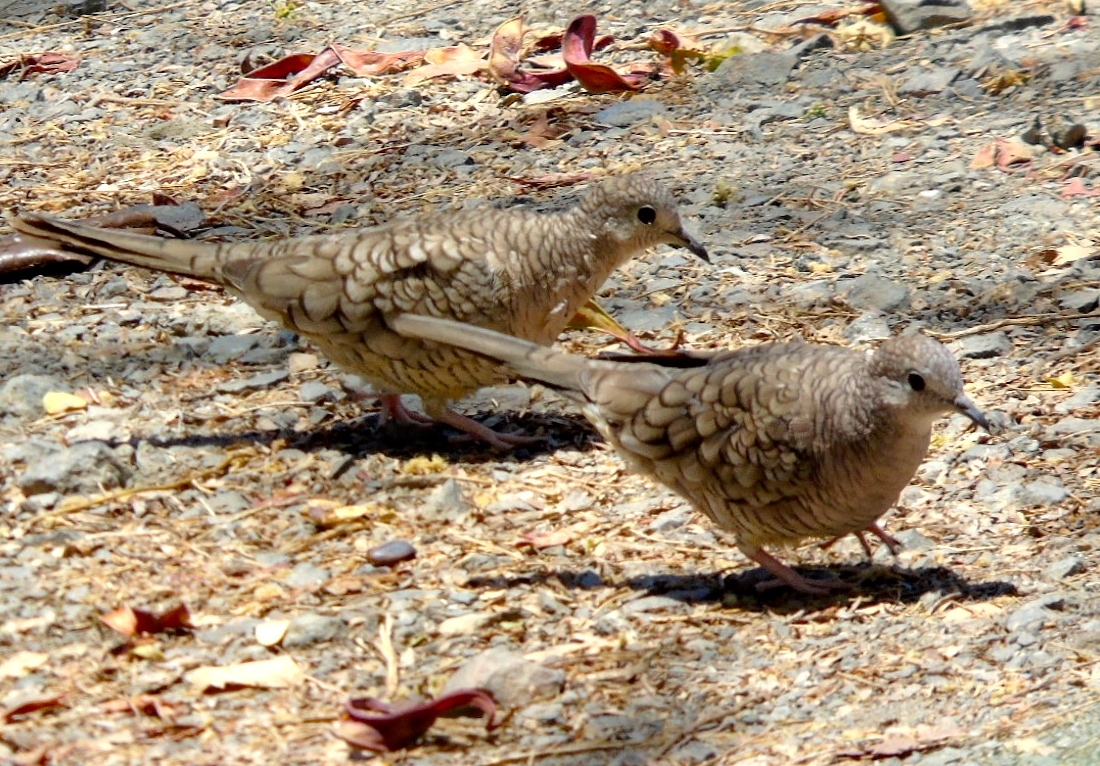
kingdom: Animalia
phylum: Chordata
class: Aves
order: Columbiformes
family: Columbidae
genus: Columbina
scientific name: Columbina inca
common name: Inca dove
